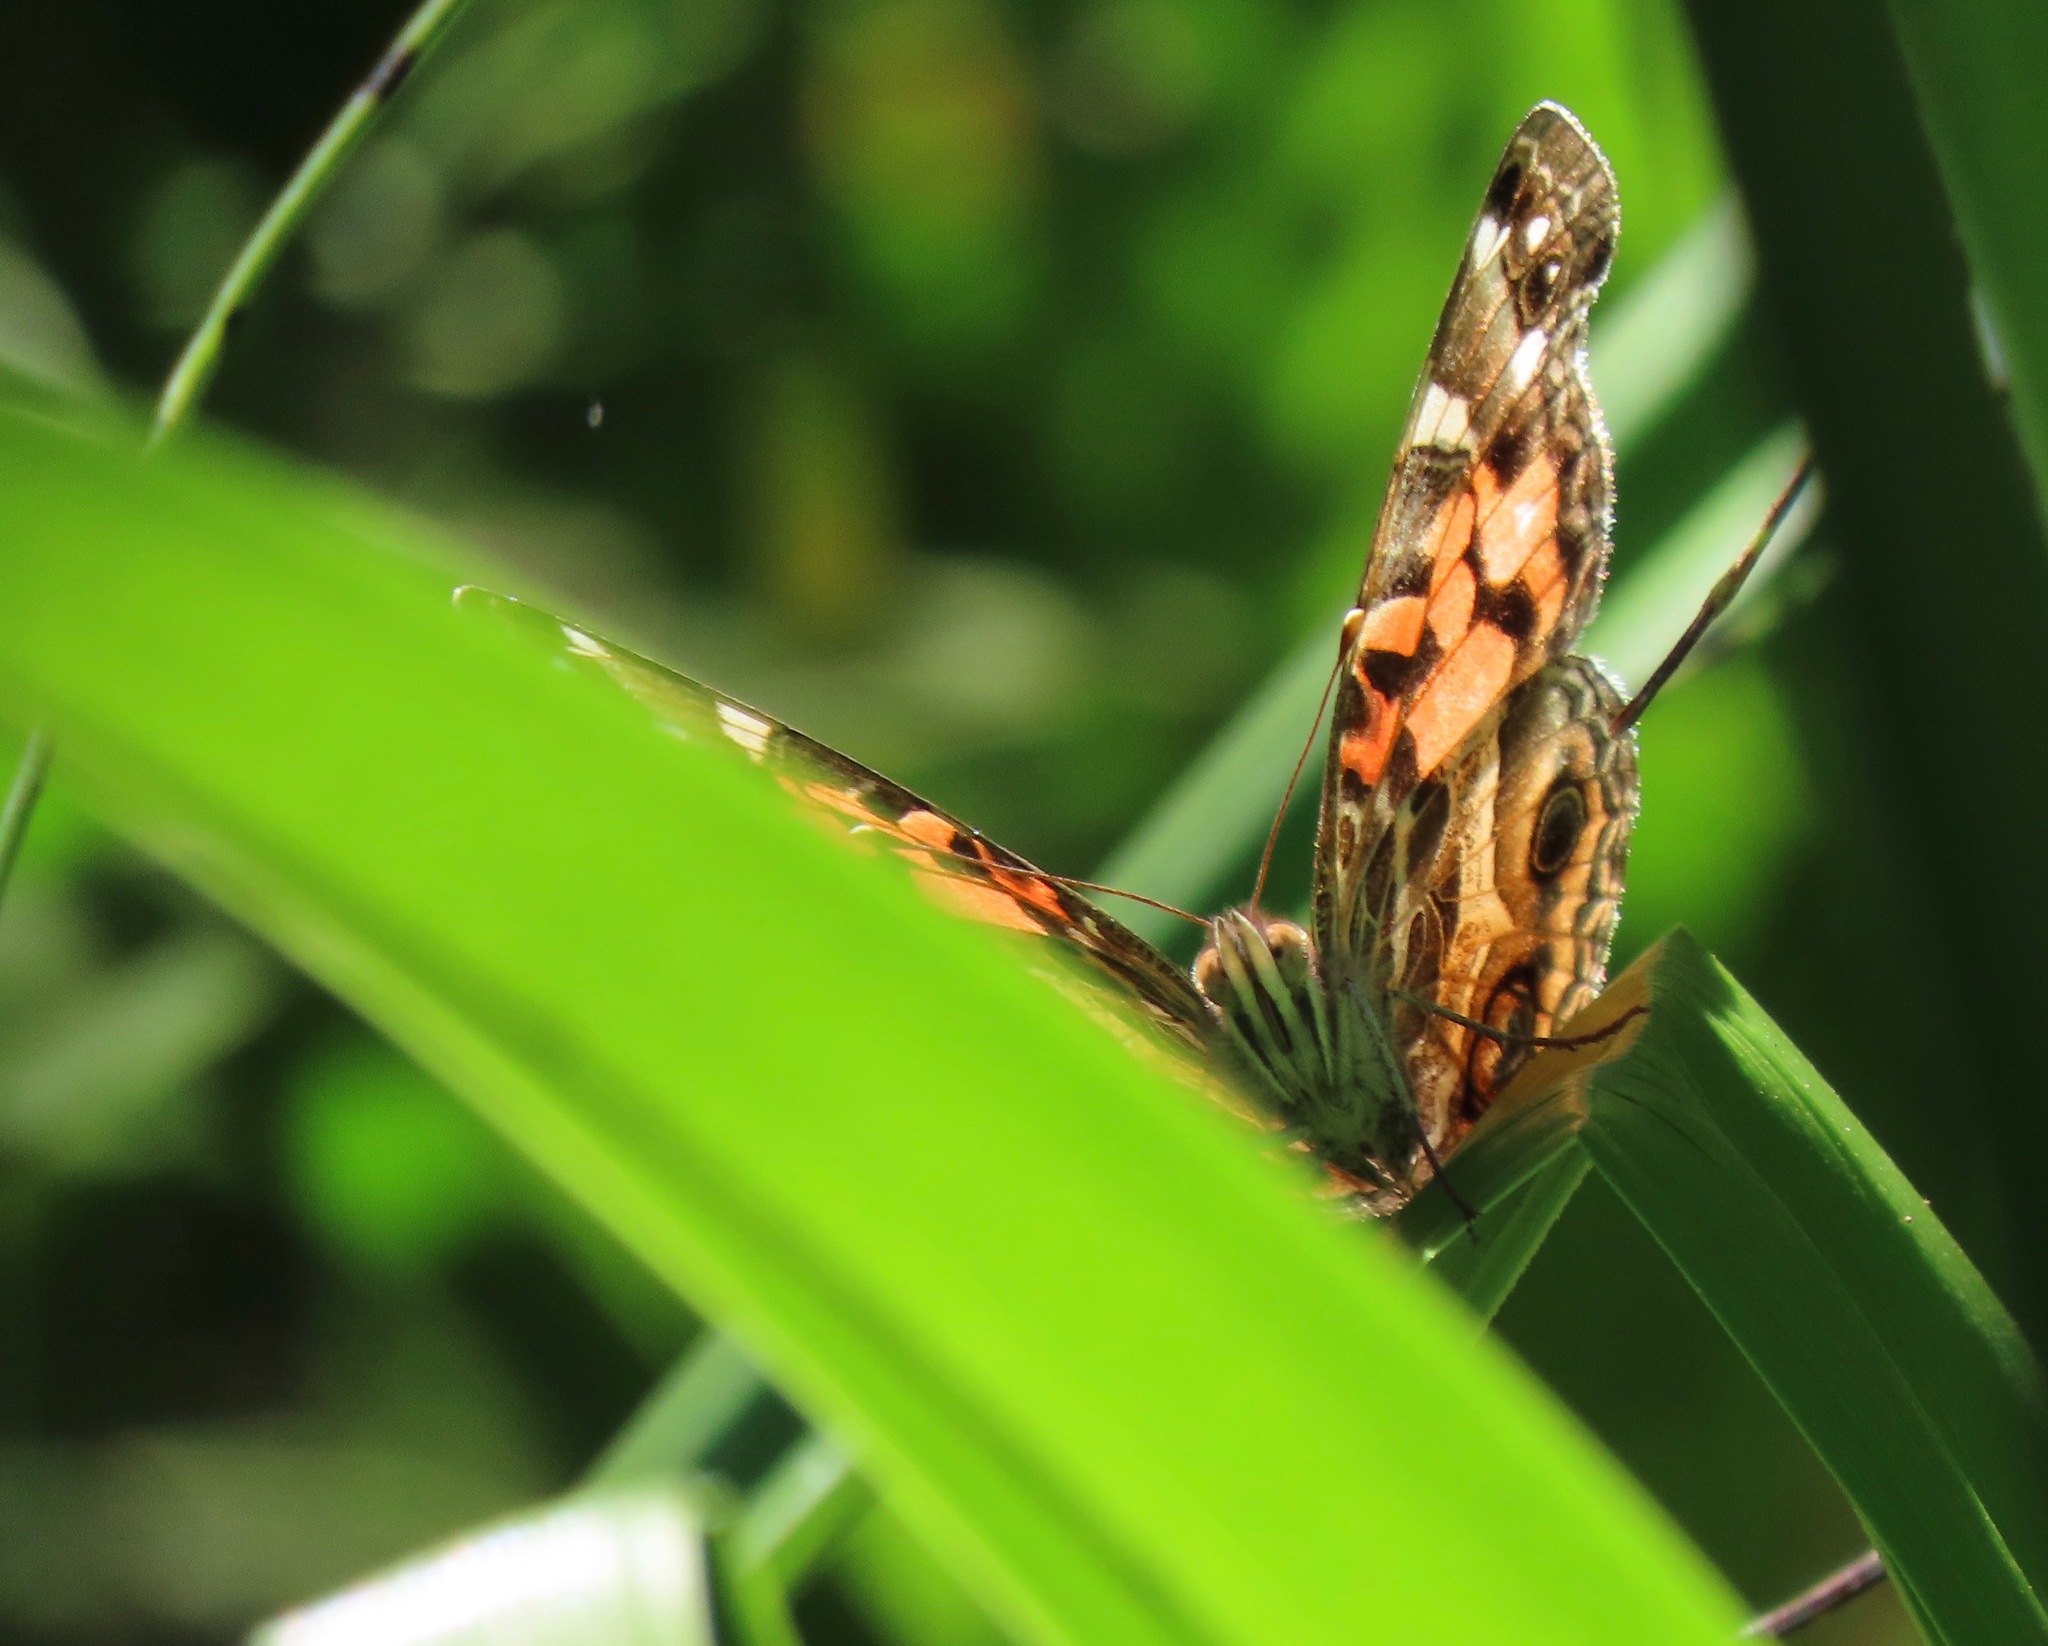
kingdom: Animalia
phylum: Arthropoda
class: Insecta
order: Lepidoptera
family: Nymphalidae
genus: Vanessa
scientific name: Vanessa virginiensis
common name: American lady
